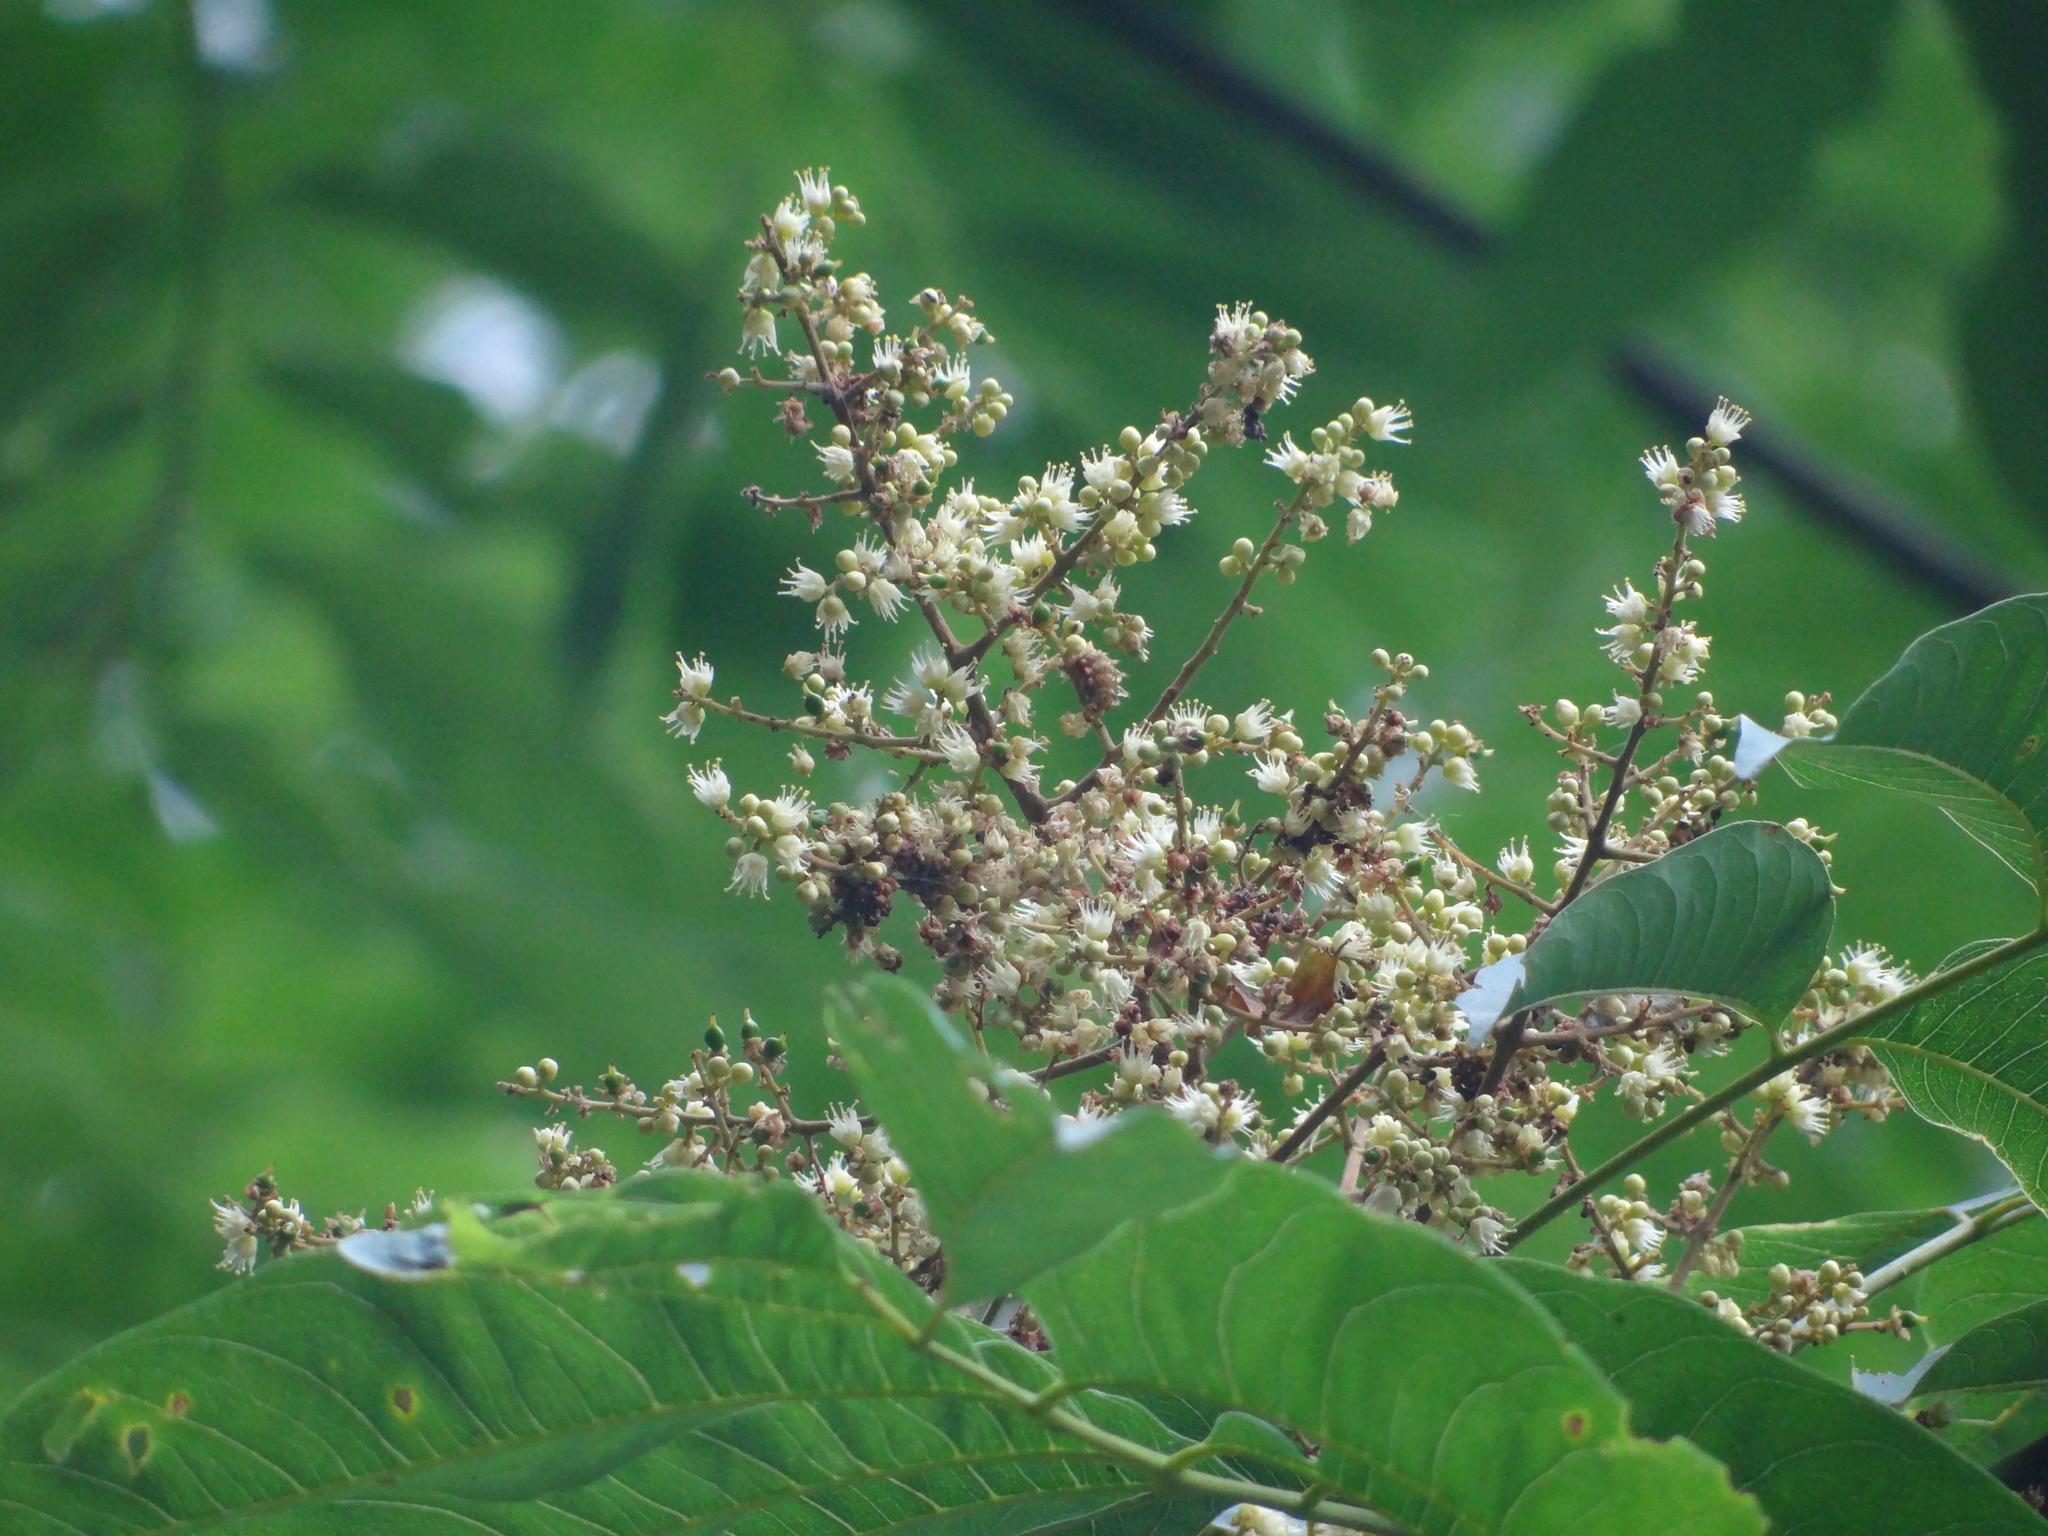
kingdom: Plantae
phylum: Tracheophyta
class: Magnoliopsida
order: Sapindales
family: Sapindaceae
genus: Sapindus
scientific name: Sapindus mukorossi
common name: Chinese soapberry
